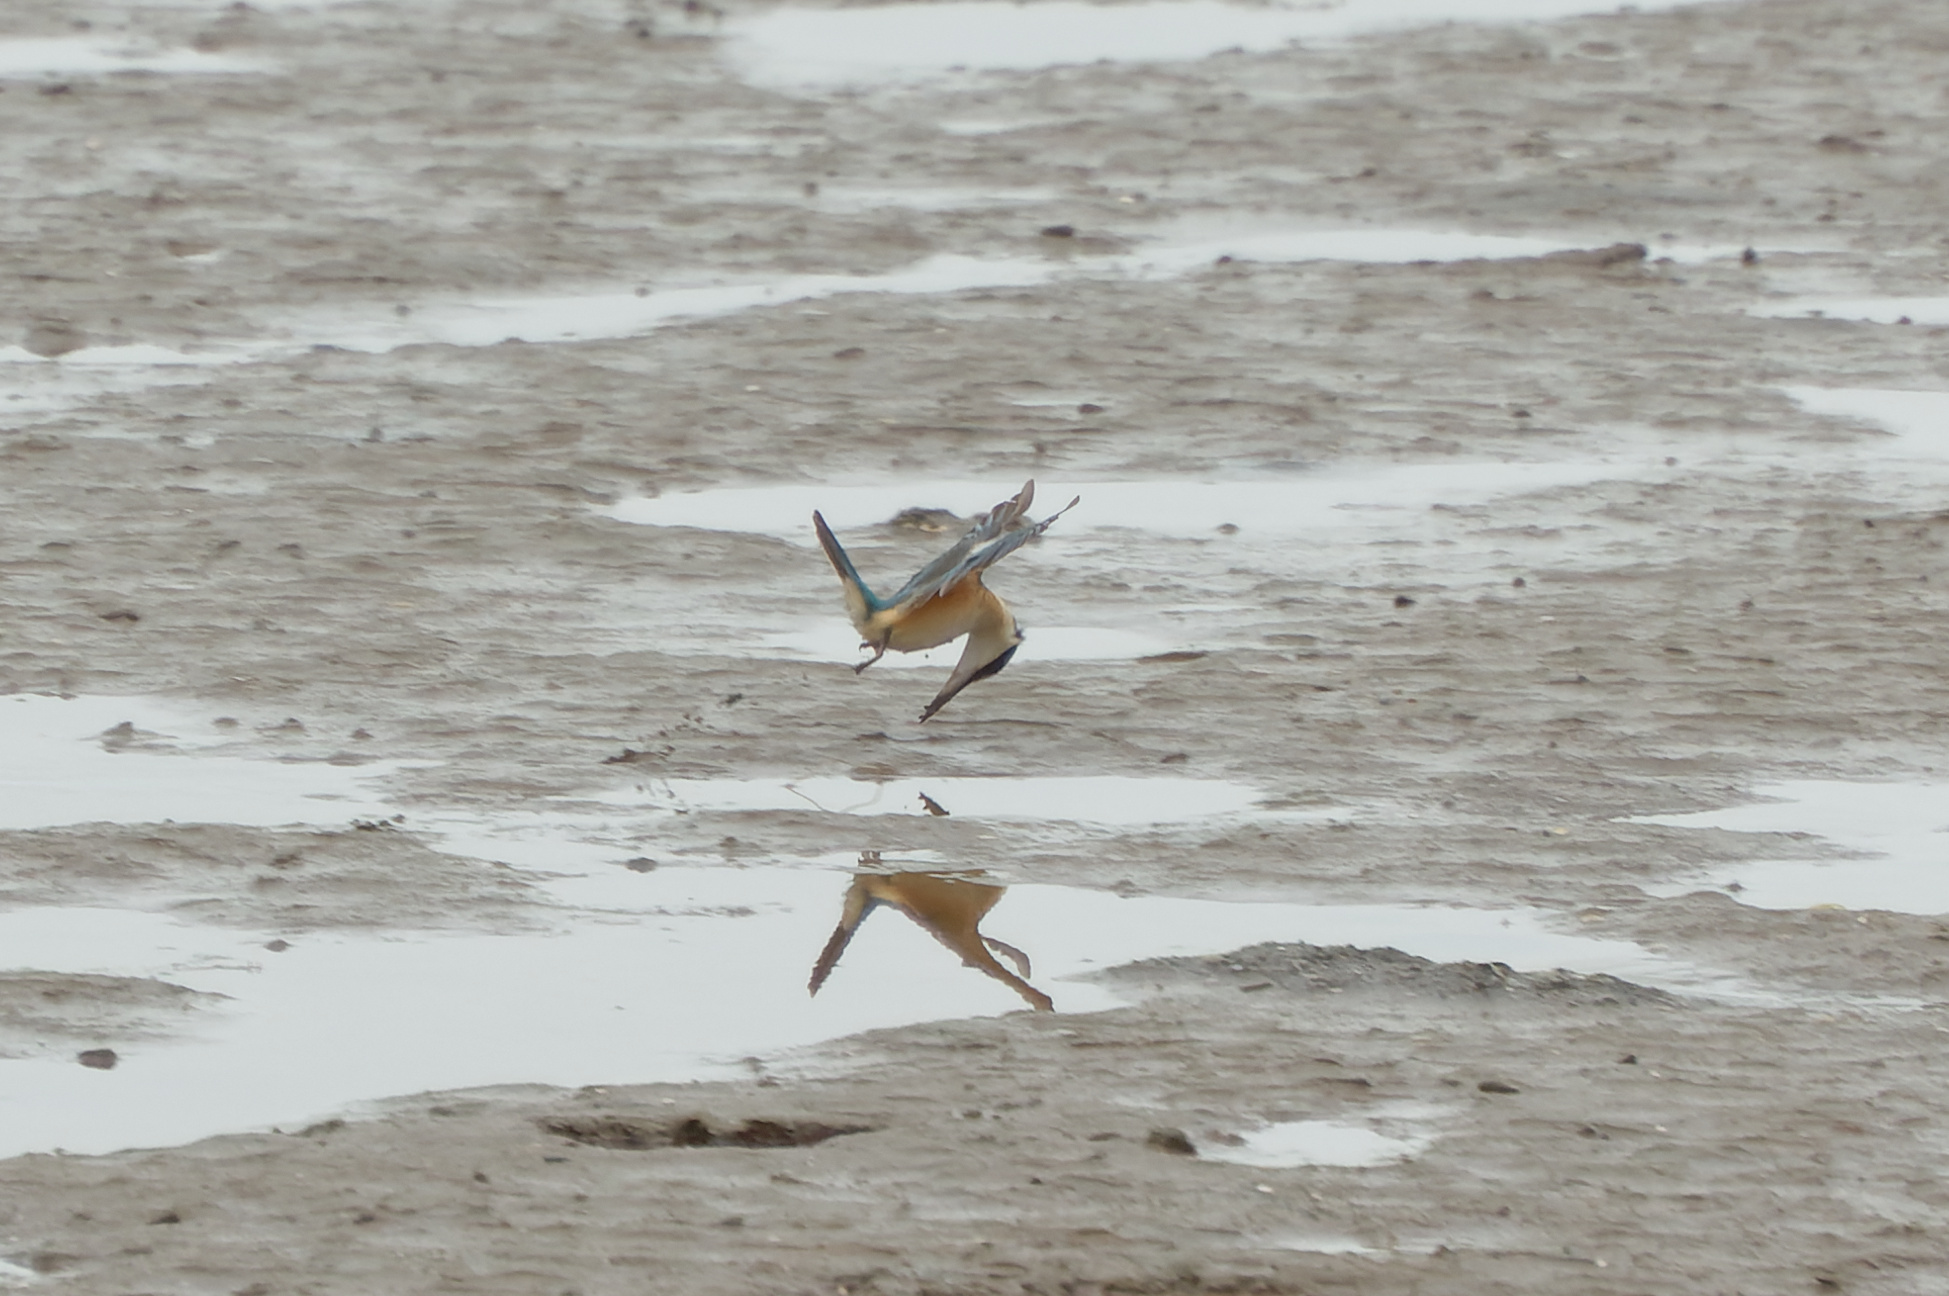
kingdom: Animalia
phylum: Chordata
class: Aves
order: Coraciiformes
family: Alcedinidae
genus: Todiramphus
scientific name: Todiramphus sanctus
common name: Sacred kingfisher
